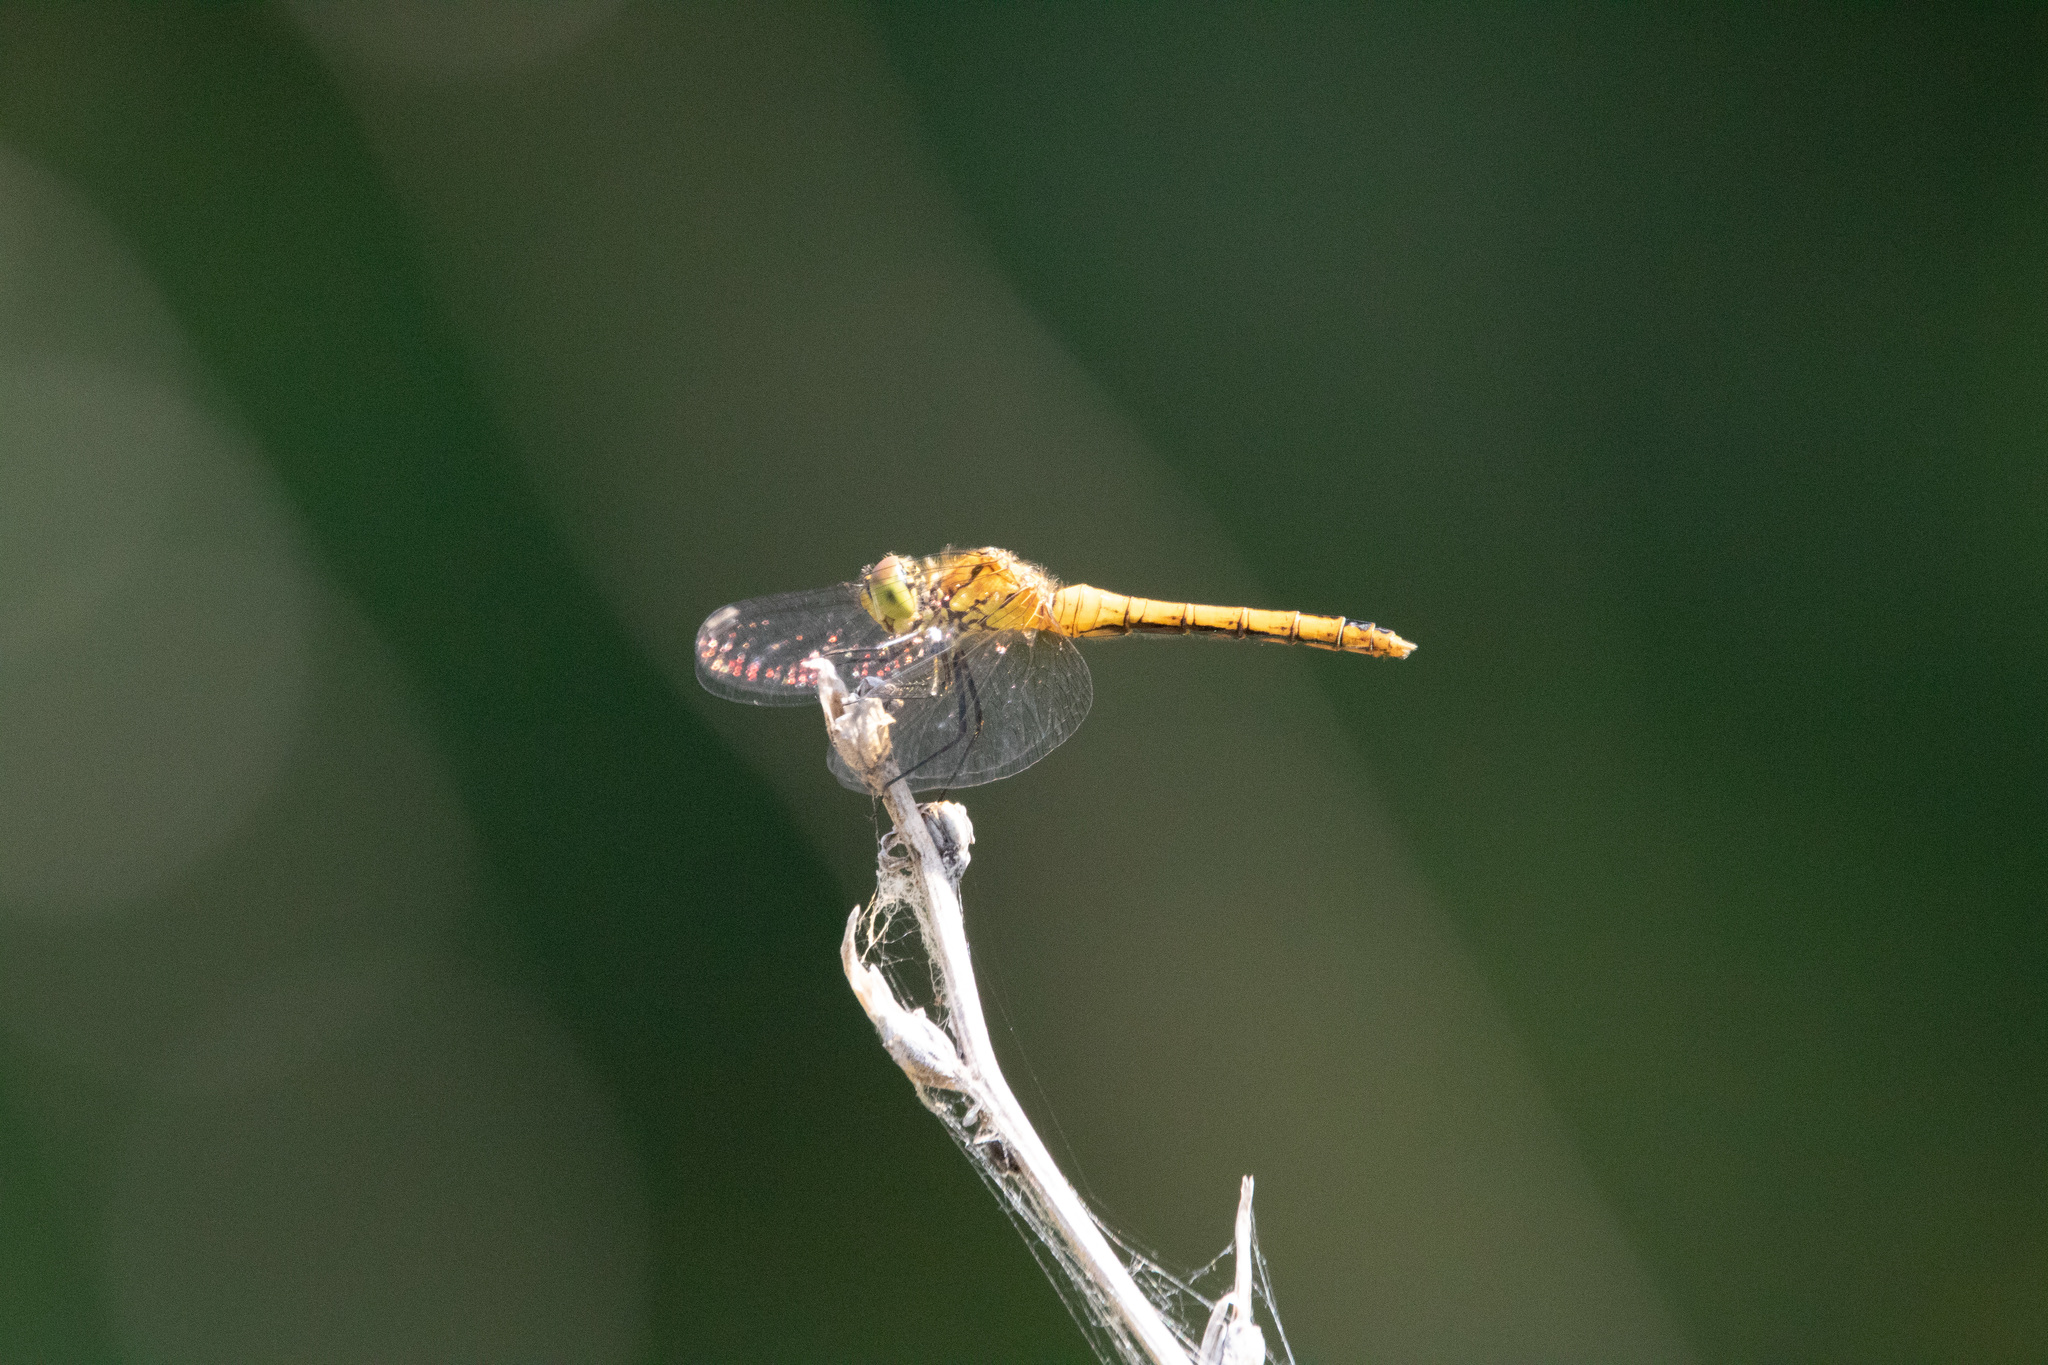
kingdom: Animalia
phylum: Arthropoda
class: Insecta
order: Odonata
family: Libellulidae
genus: Sympetrum
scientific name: Sympetrum sanguineum
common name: Ruddy darter
